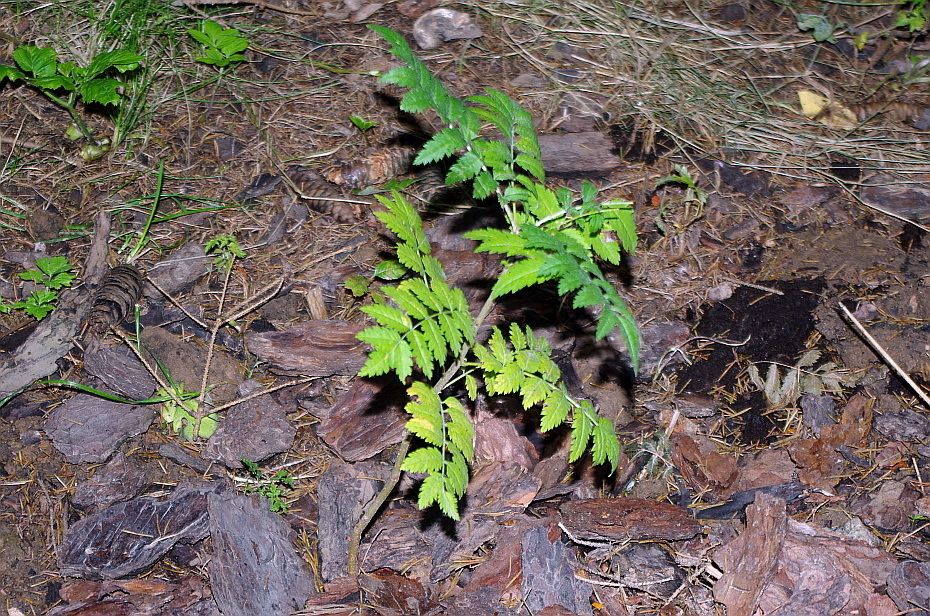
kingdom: Plantae
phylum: Tracheophyta
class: Magnoliopsida
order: Rosales
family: Rosaceae
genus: Sorbus
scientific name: Sorbus aucuparia
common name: Rowan
